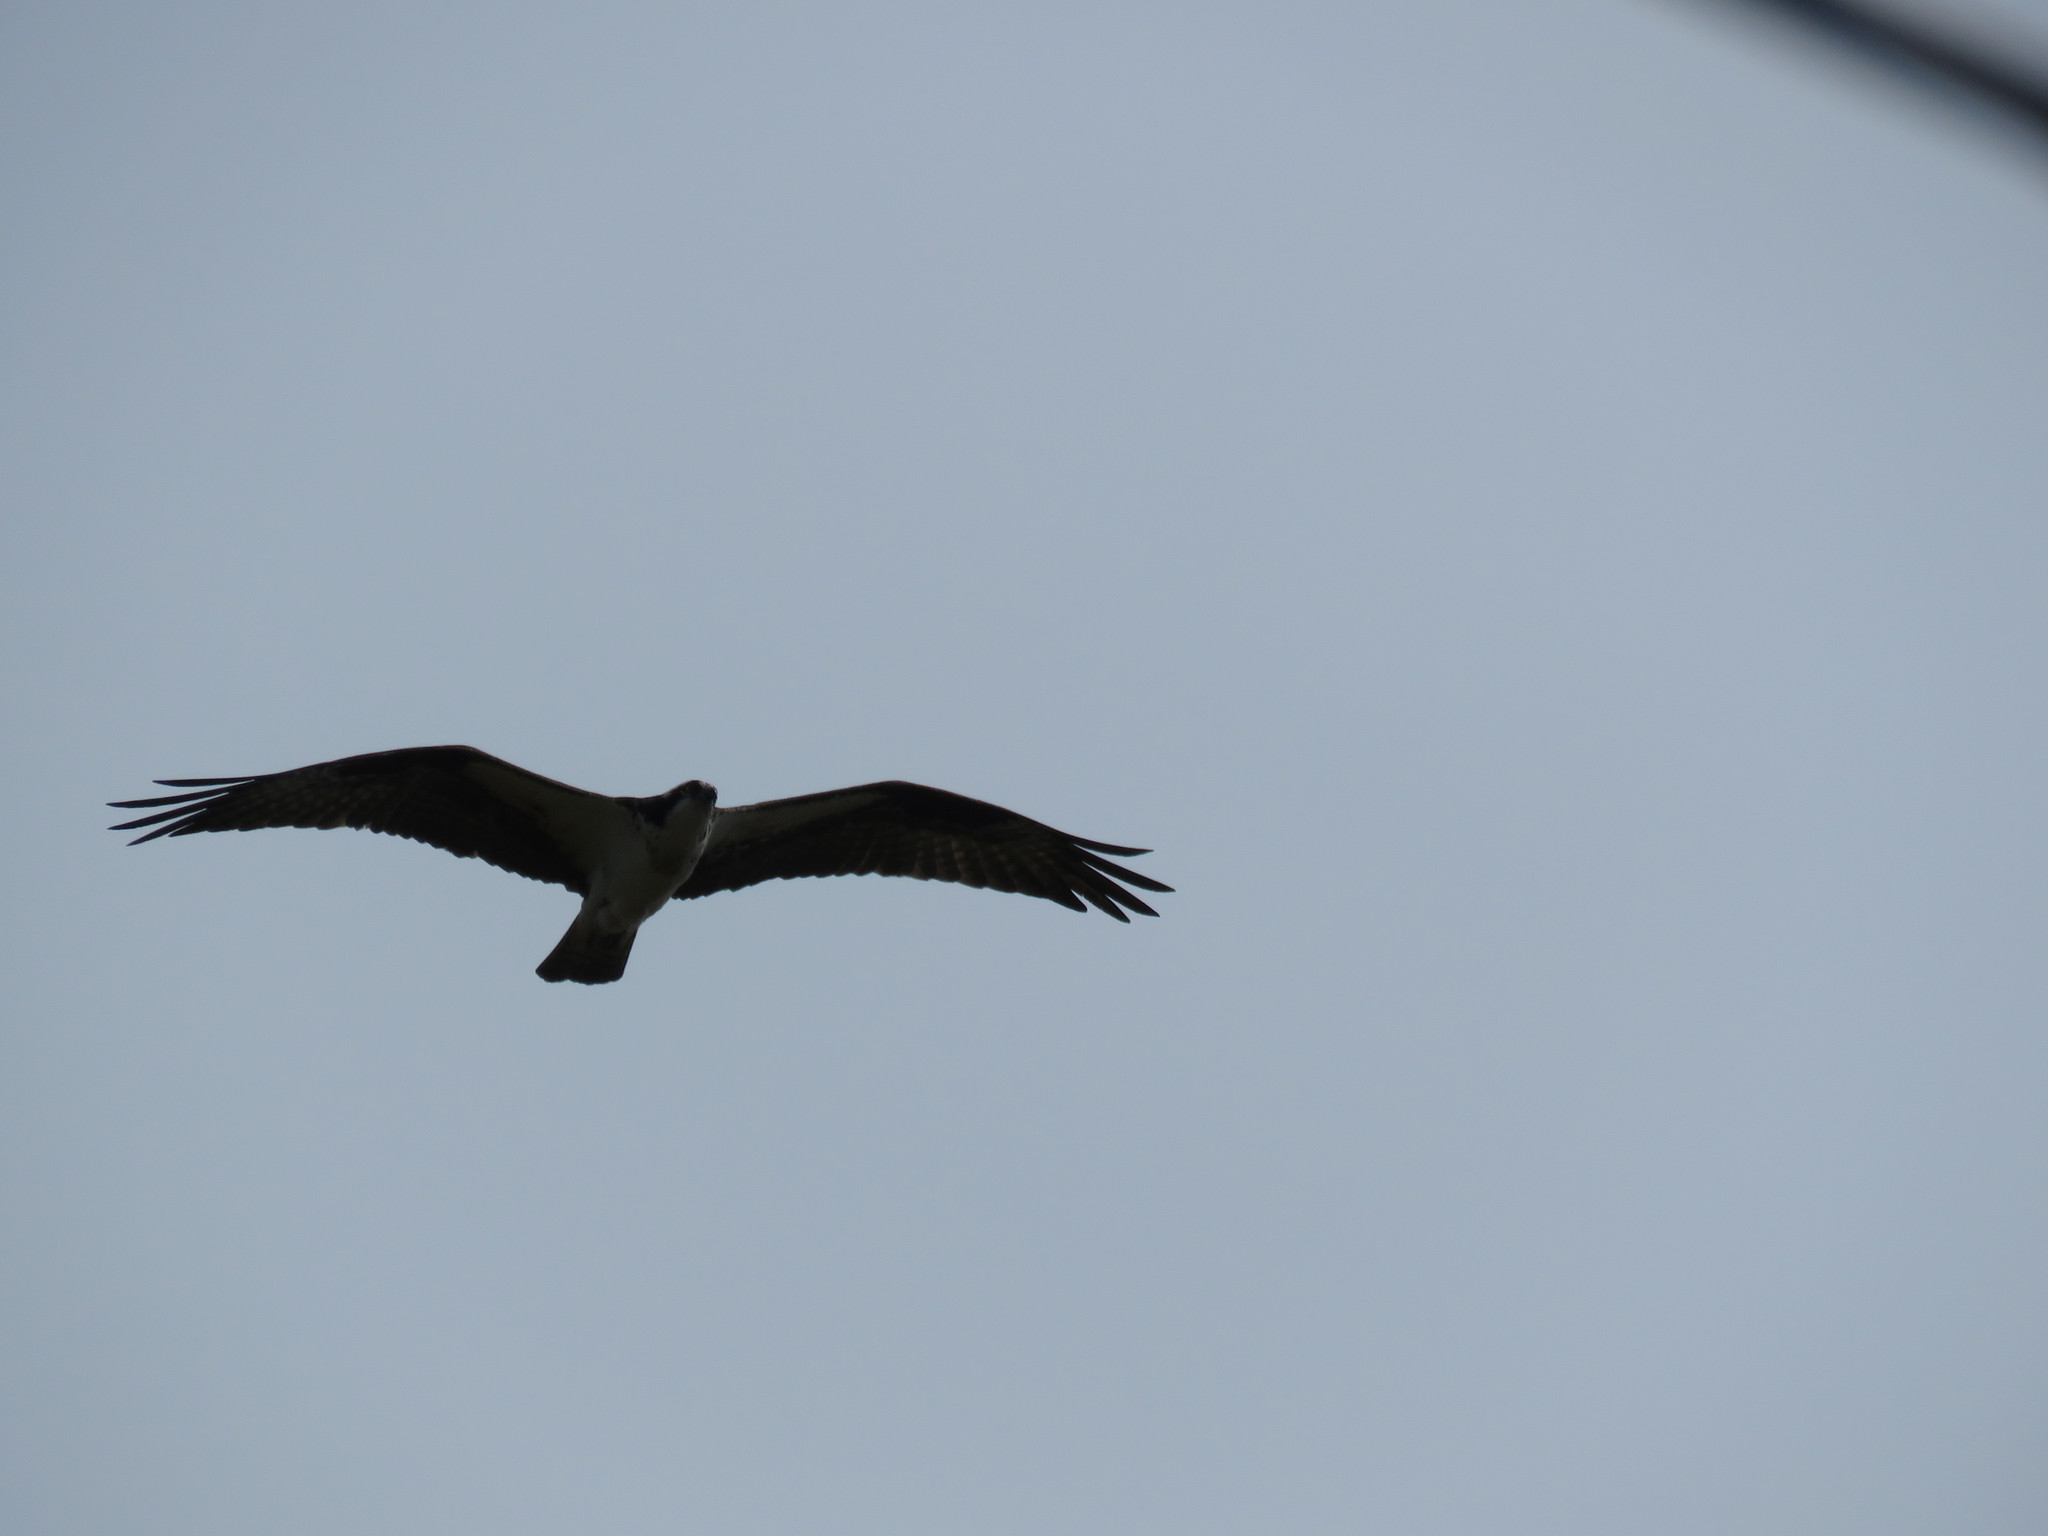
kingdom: Animalia
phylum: Chordata
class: Aves
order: Accipitriformes
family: Pandionidae
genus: Pandion
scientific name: Pandion haliaetus
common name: Osprey
